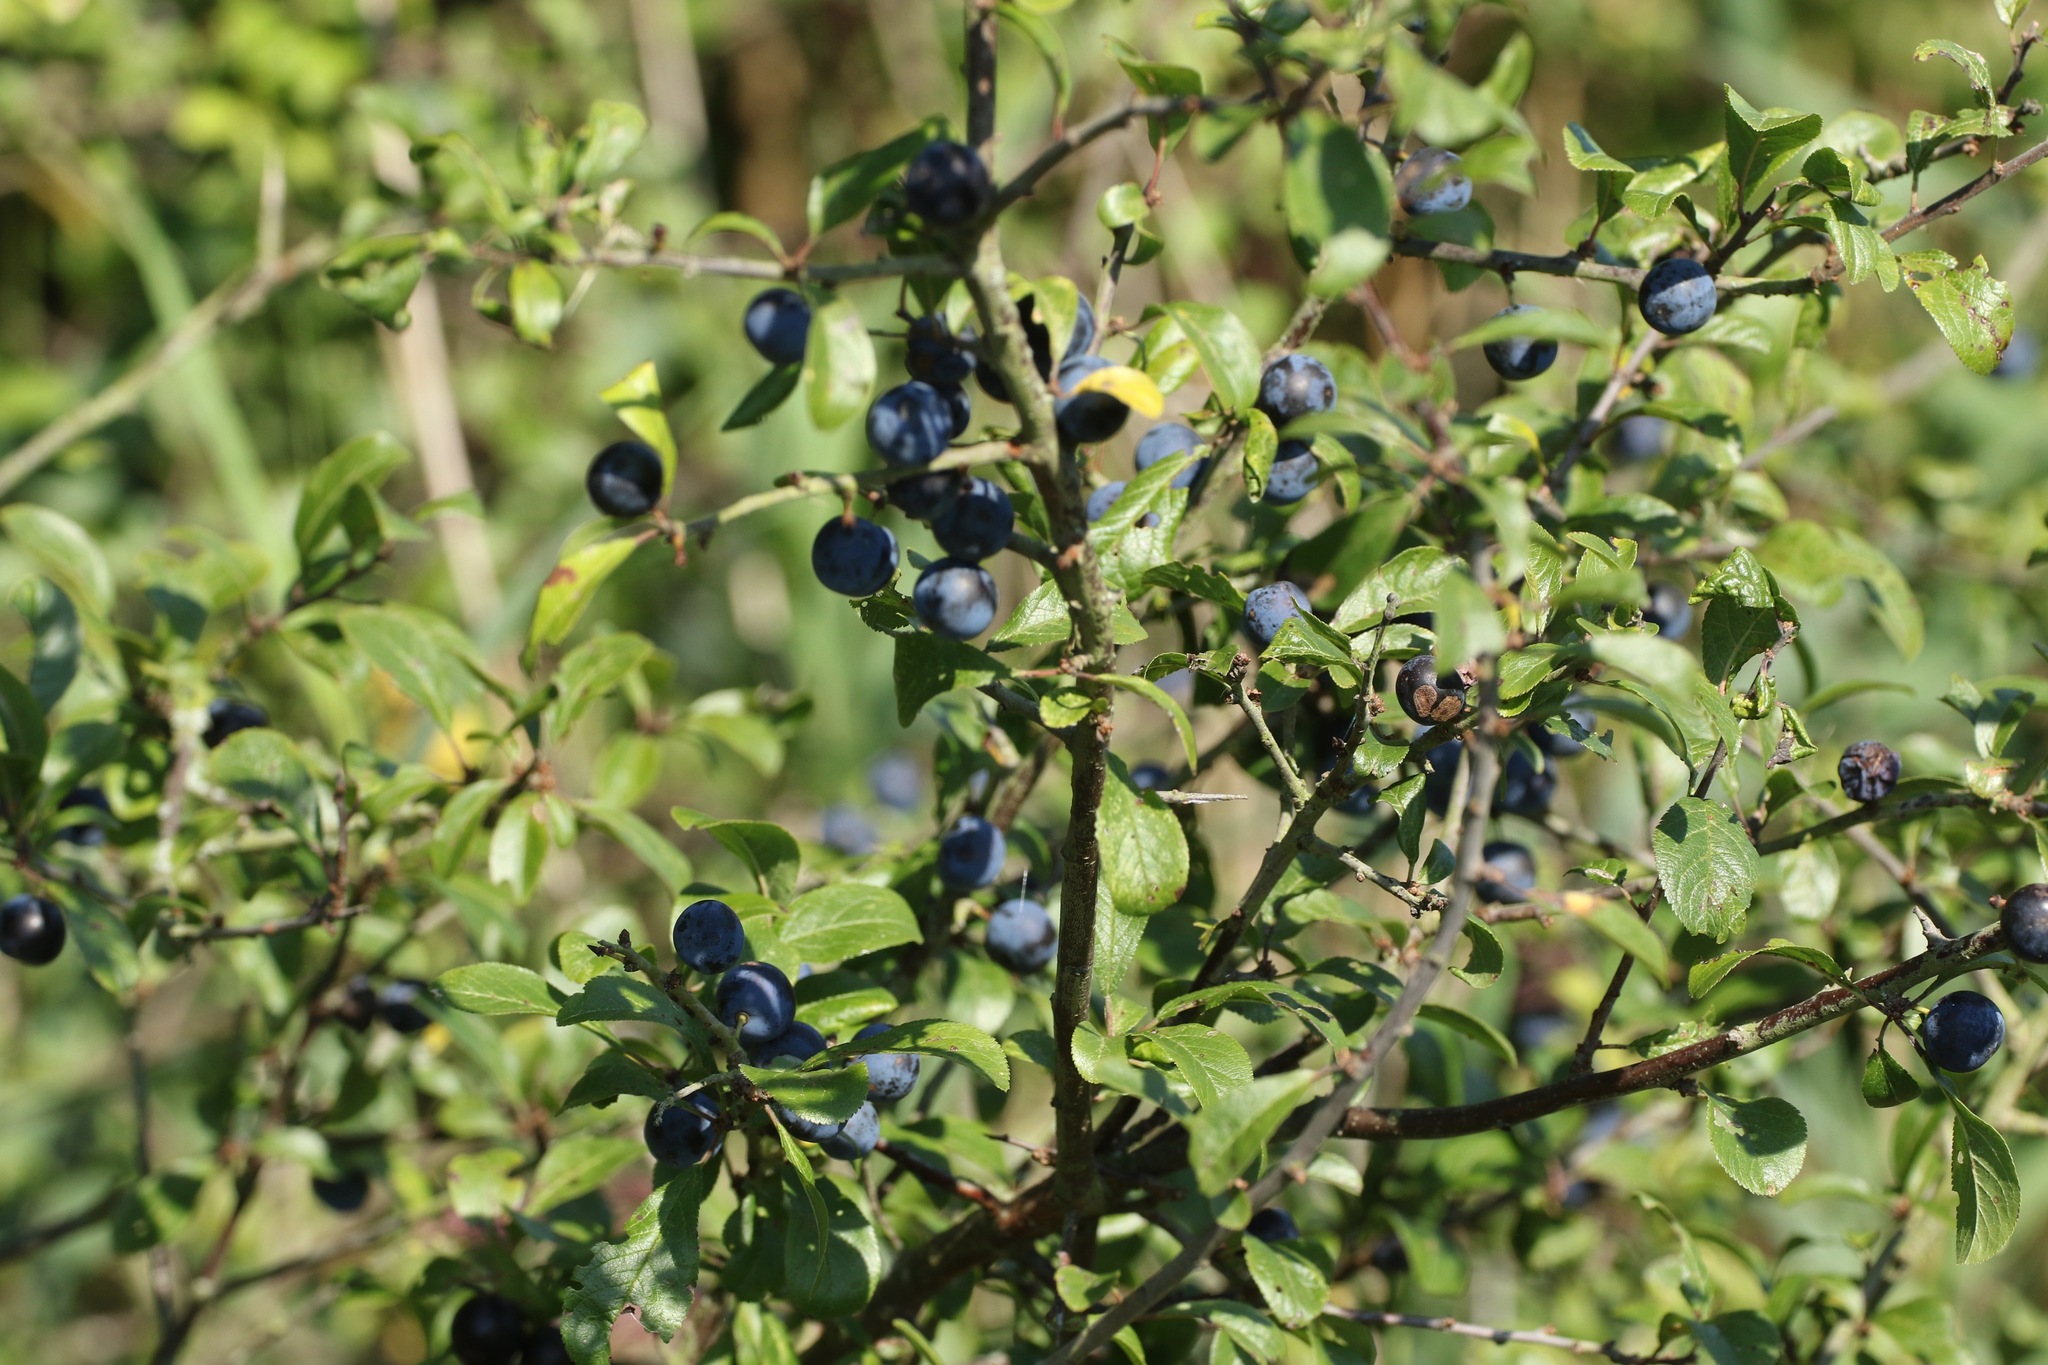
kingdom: Plantae
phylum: Tracheophyta
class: Magnoliopsida
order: Rosales
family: Rosaceae
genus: Prunus
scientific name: Prunus spinosa
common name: Blackthorn
